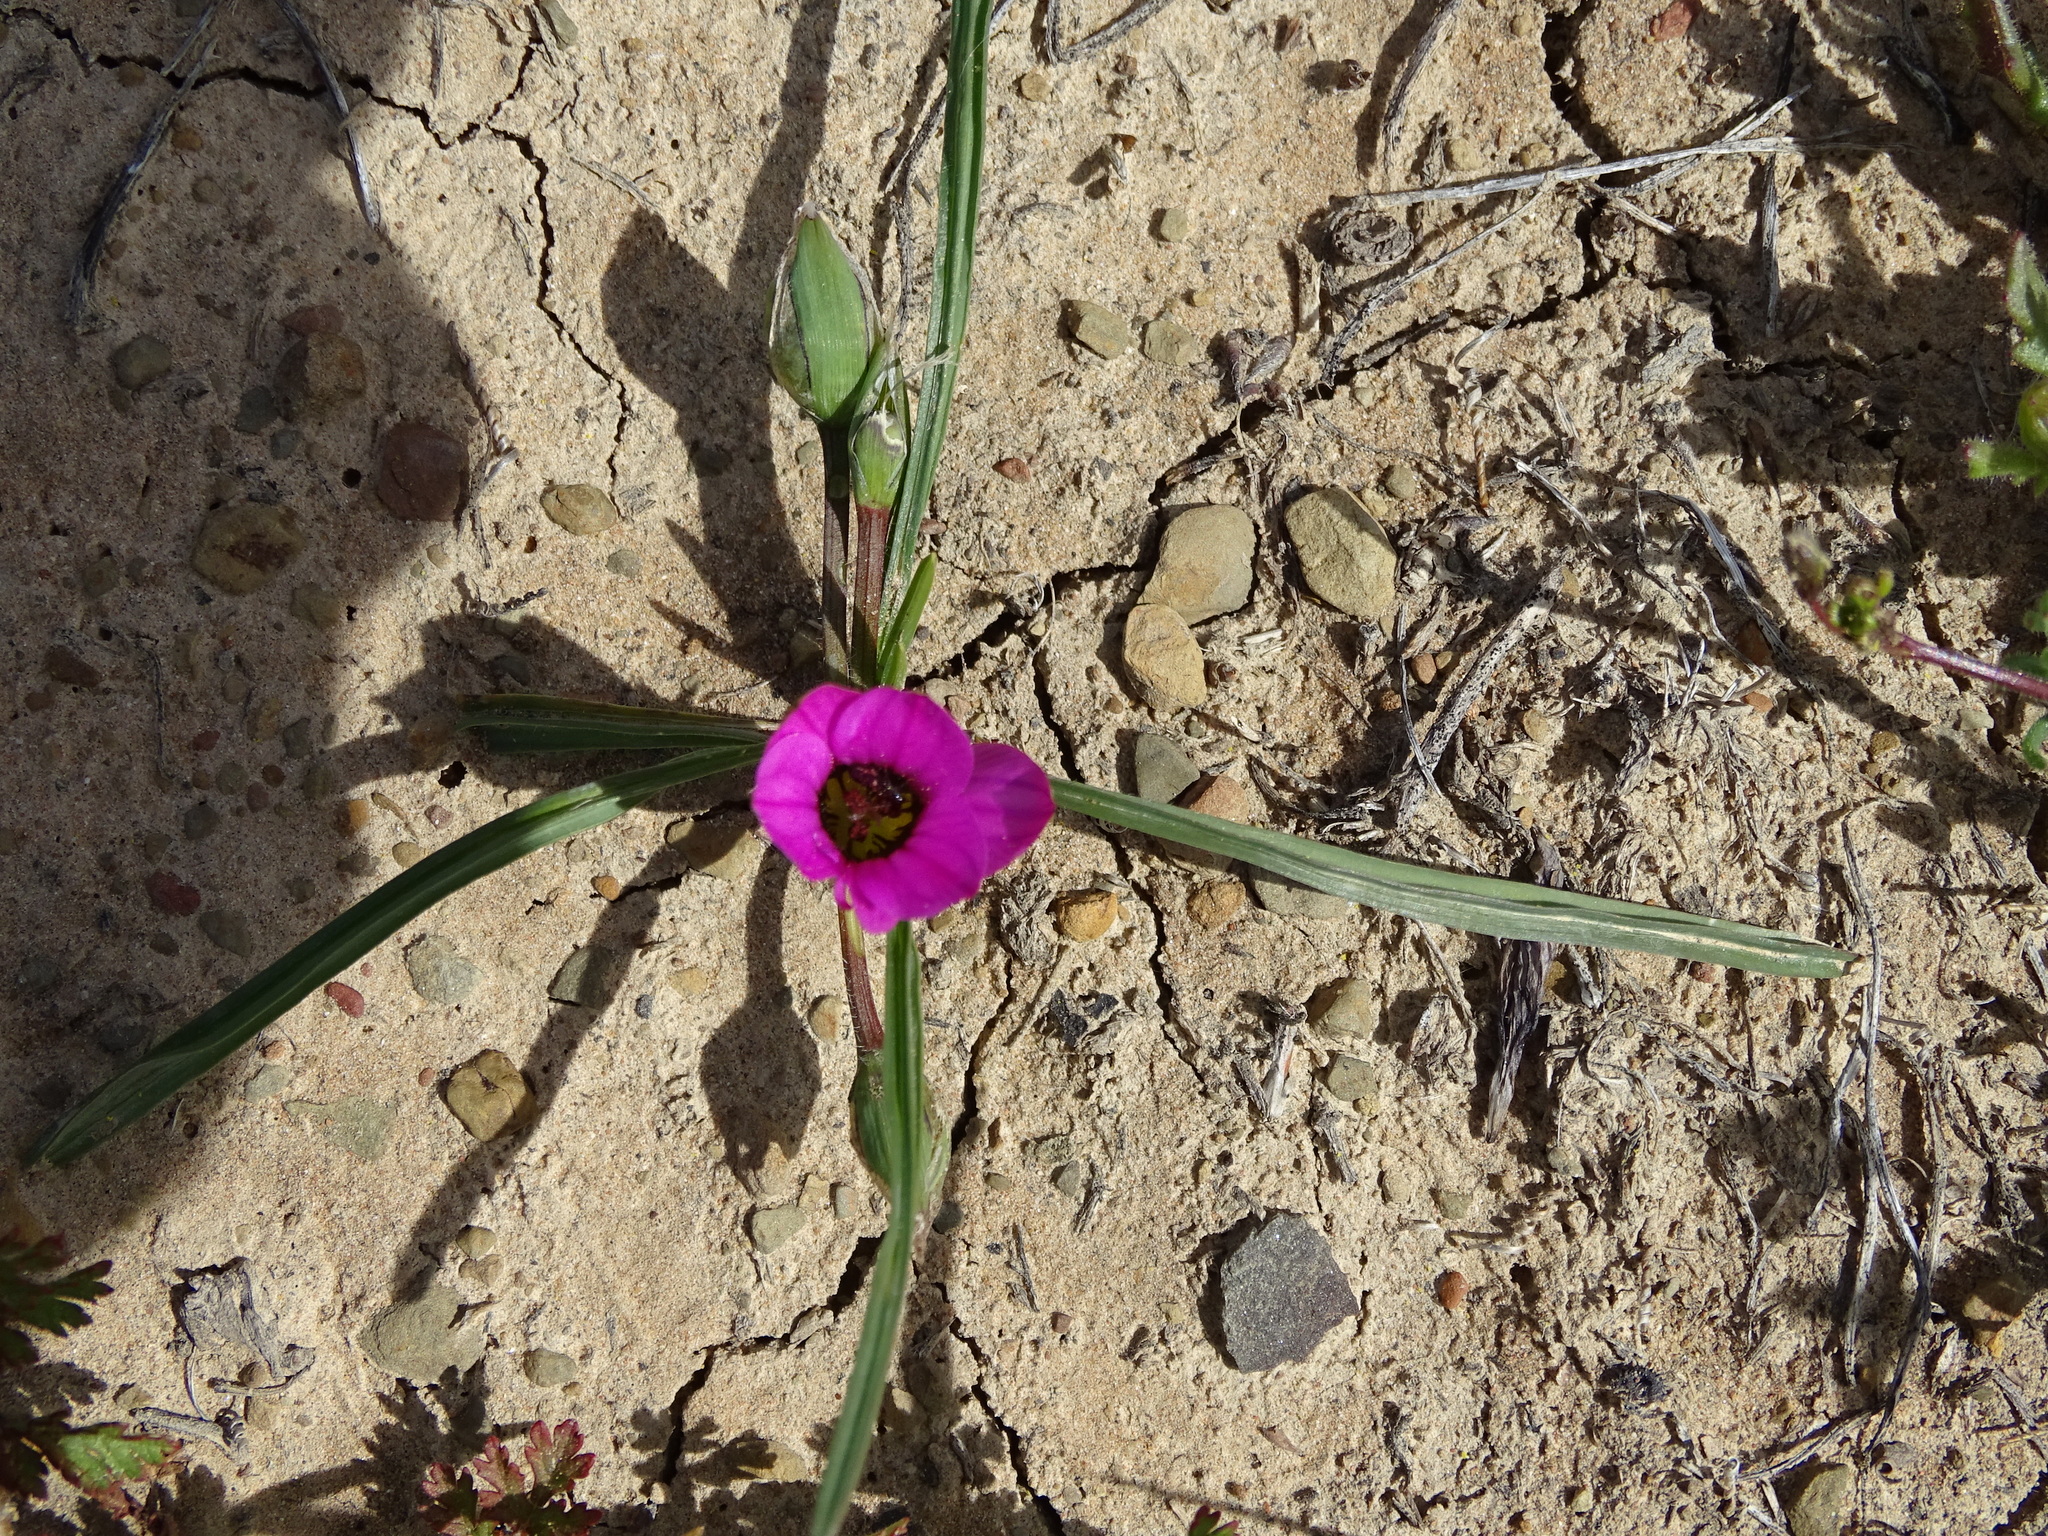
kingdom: Plantae
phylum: Tracheophyta
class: Liliopsida
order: Asparagales
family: Iridaceae
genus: Romulea
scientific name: Romulea tetragona
